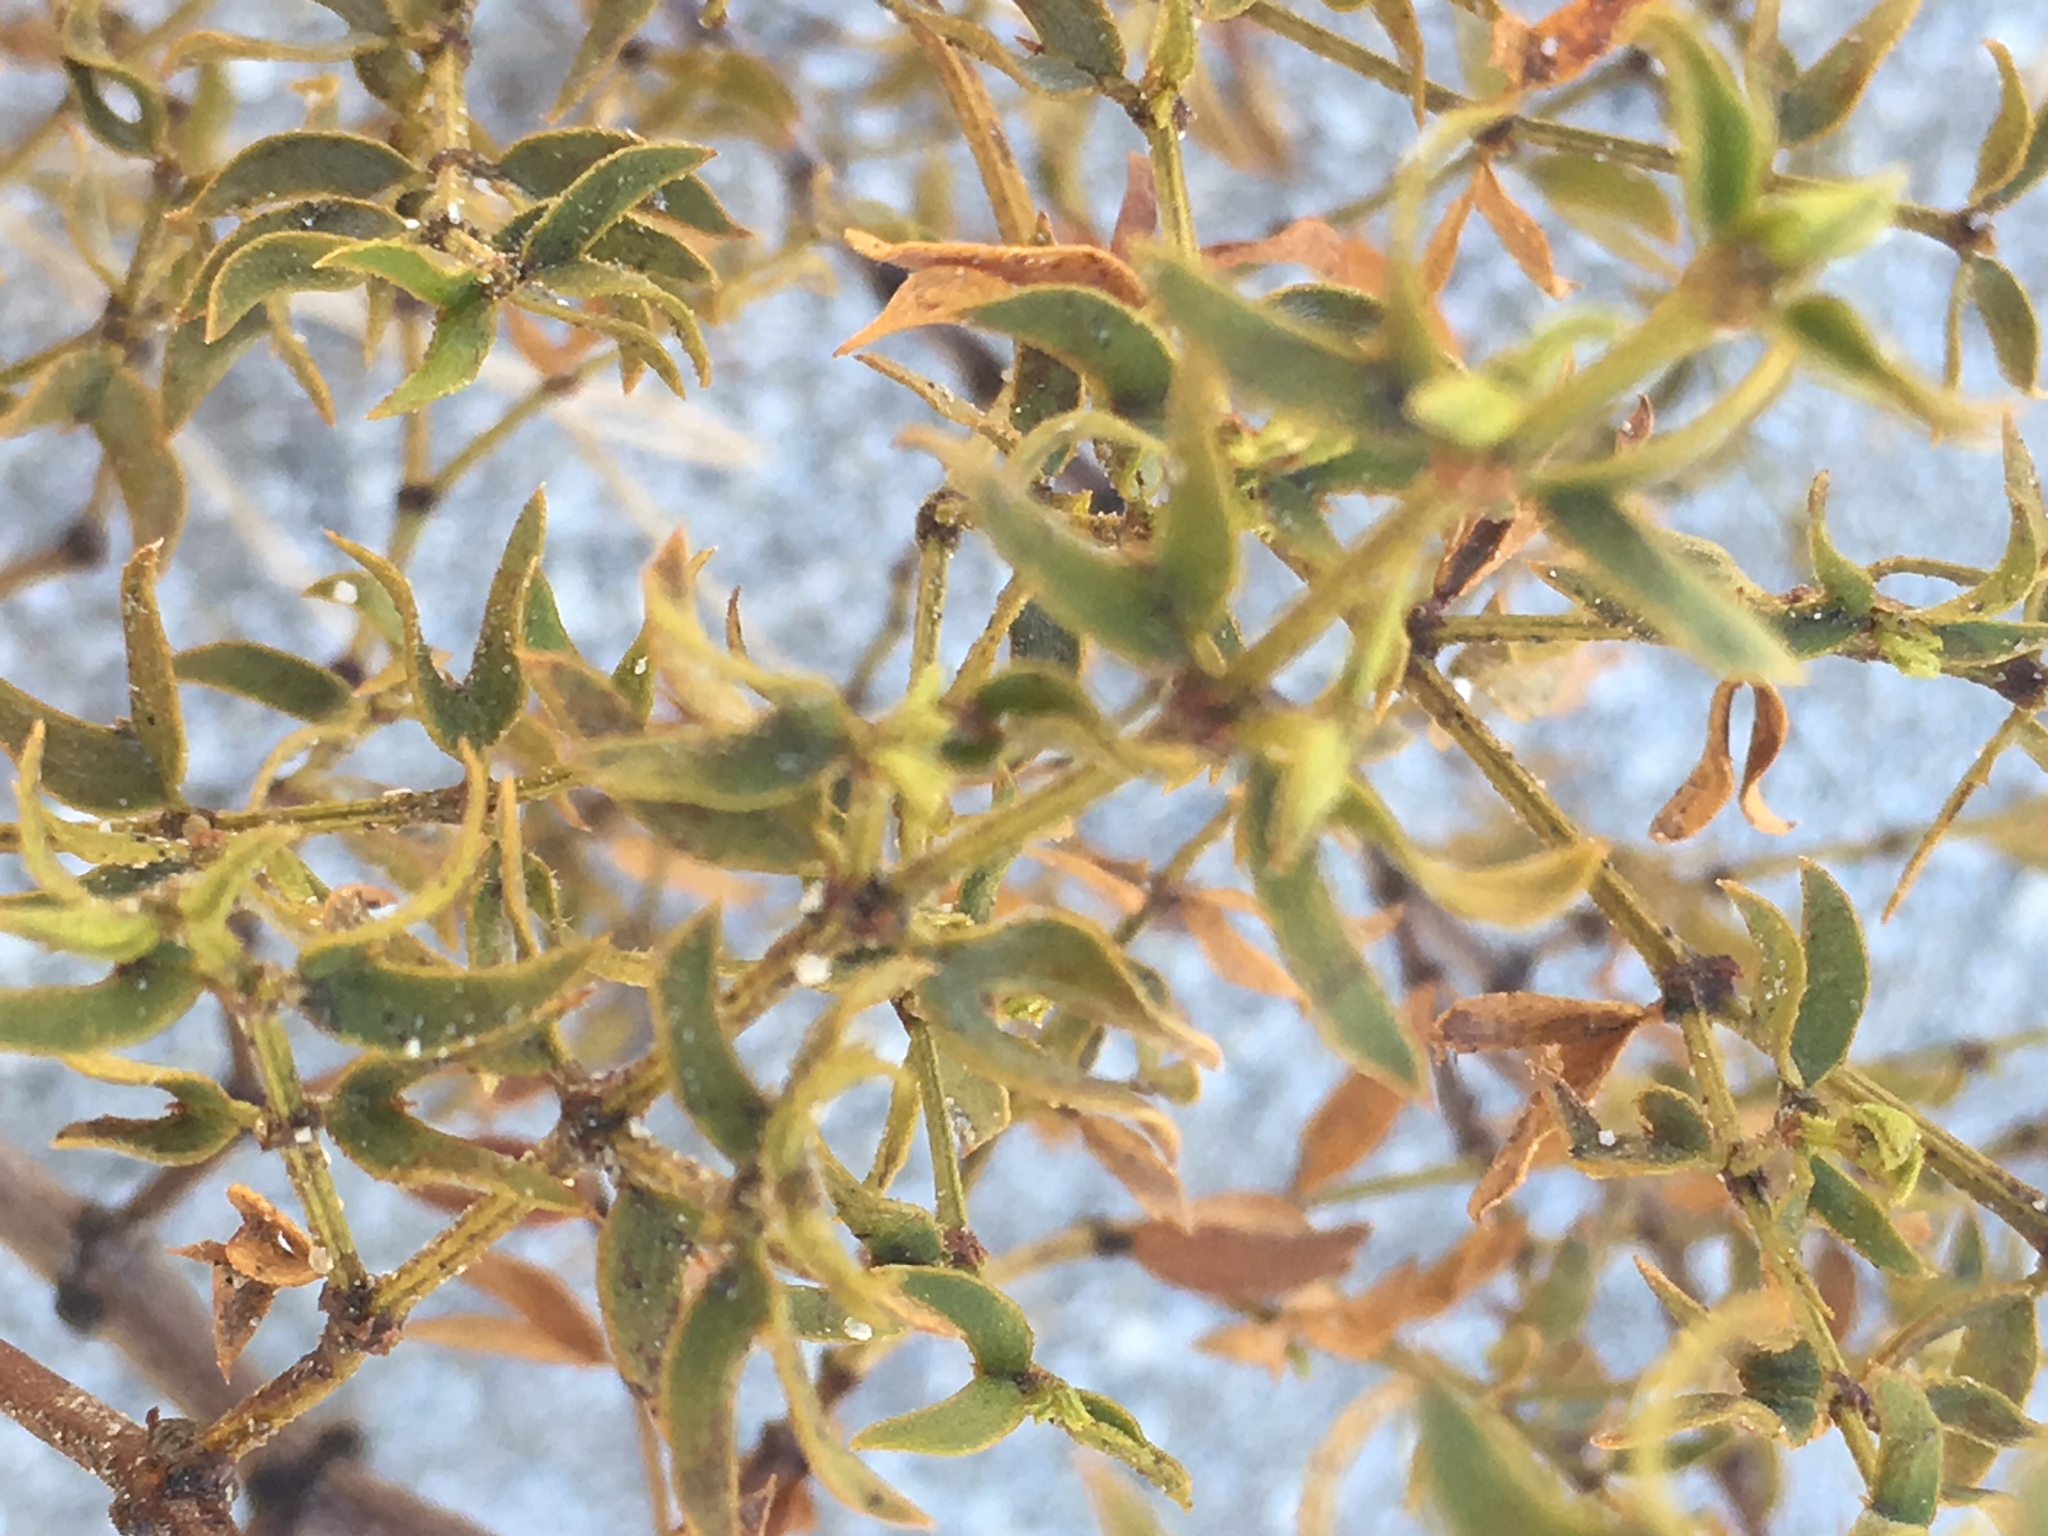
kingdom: Plantae
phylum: Tracheophyta
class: Magnoliopsida
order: Zygophyllales
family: Zygophyllaceae
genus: Larrea
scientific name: Larrea tridentata
